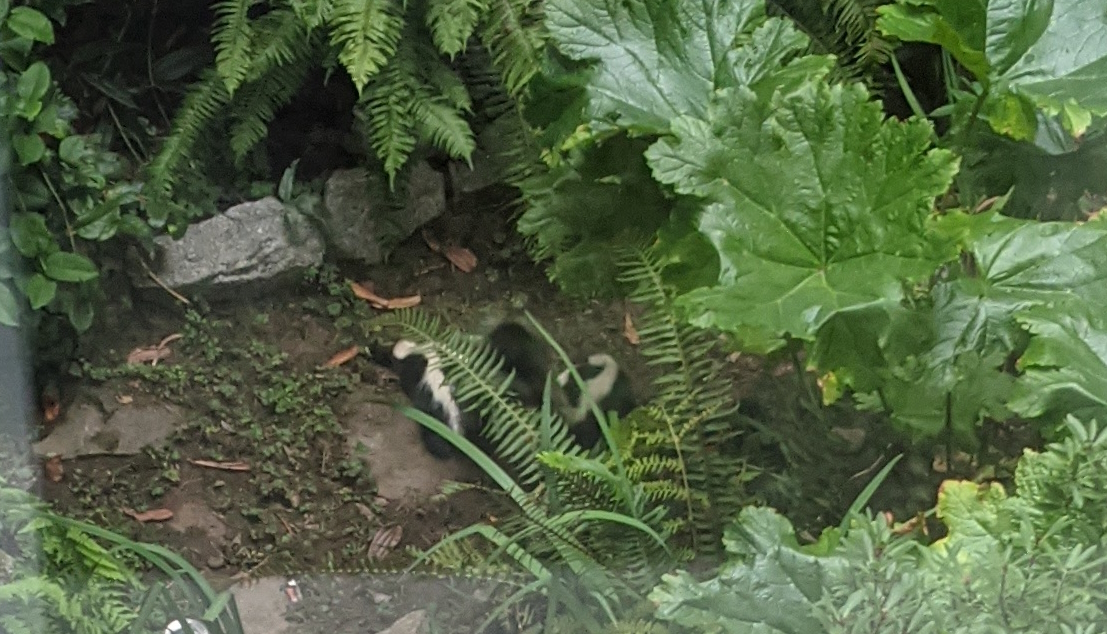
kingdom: Animalia
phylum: Chordata
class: Mammalia
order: Carnivora
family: Mephitidae
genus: Mephitis
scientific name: Mephitis mephitis
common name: Striped skunk
